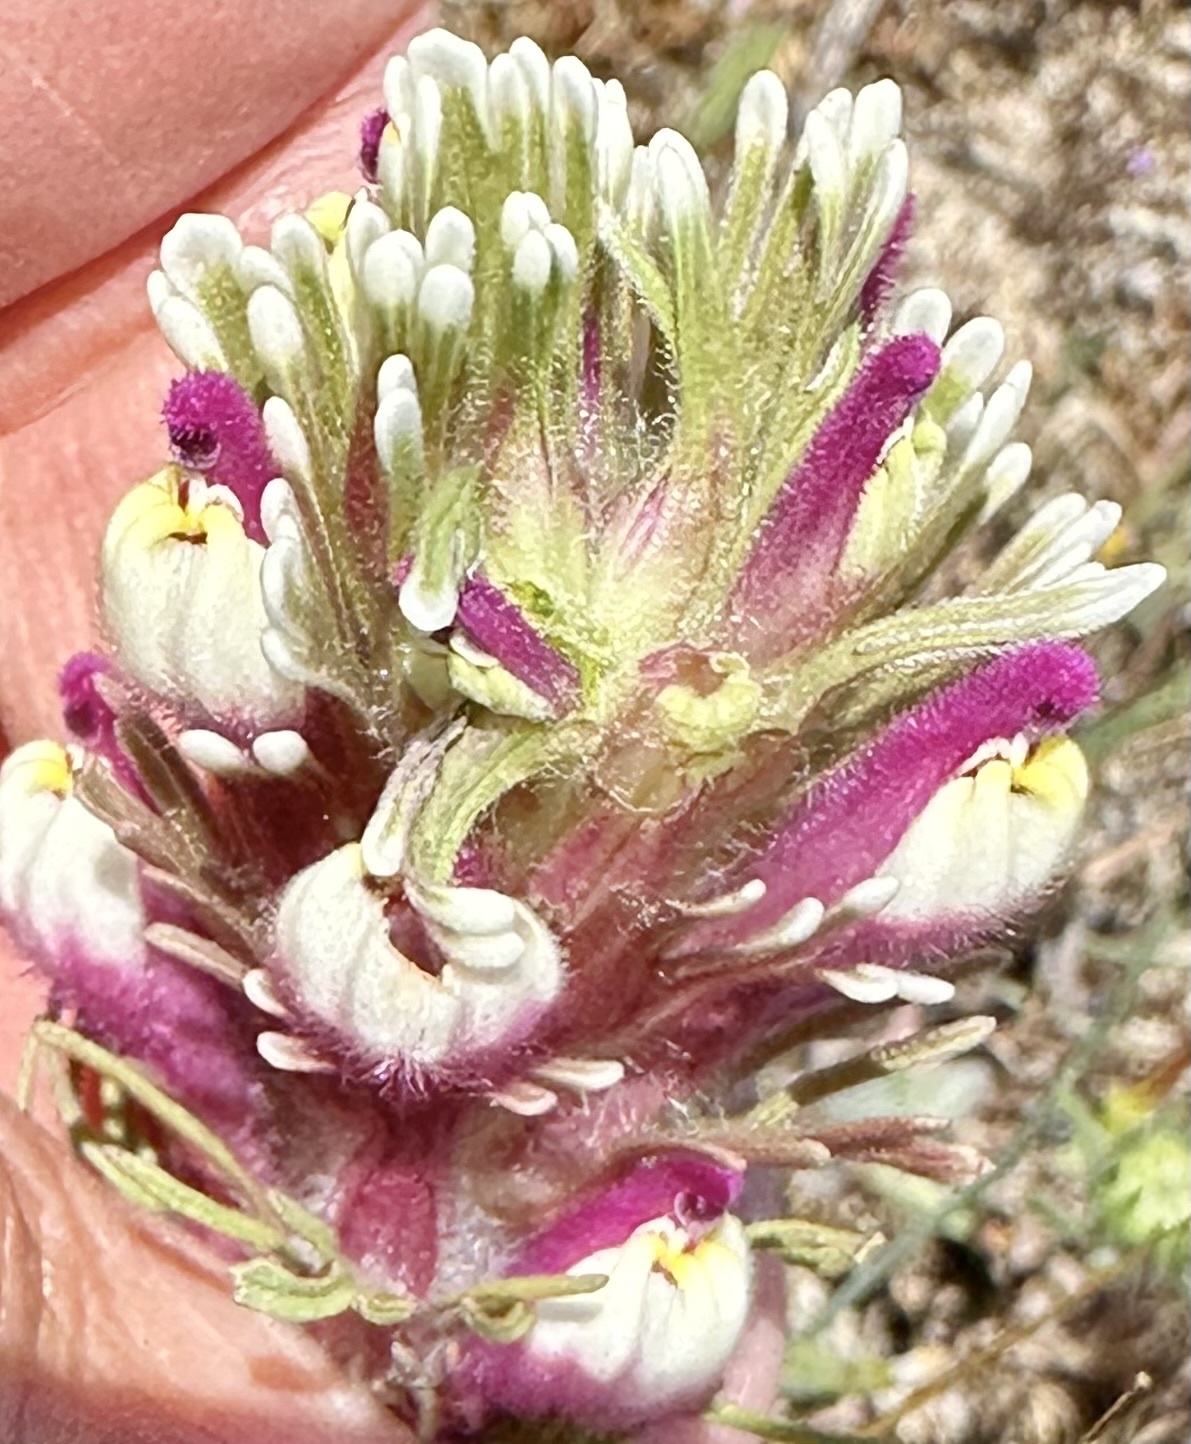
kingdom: Plantae
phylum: Tracheophyta
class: Magnoliopsida
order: Lamiales
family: Orobanchaceae
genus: Castilleja
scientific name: Castilleja exserta
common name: Purple owl-clover
